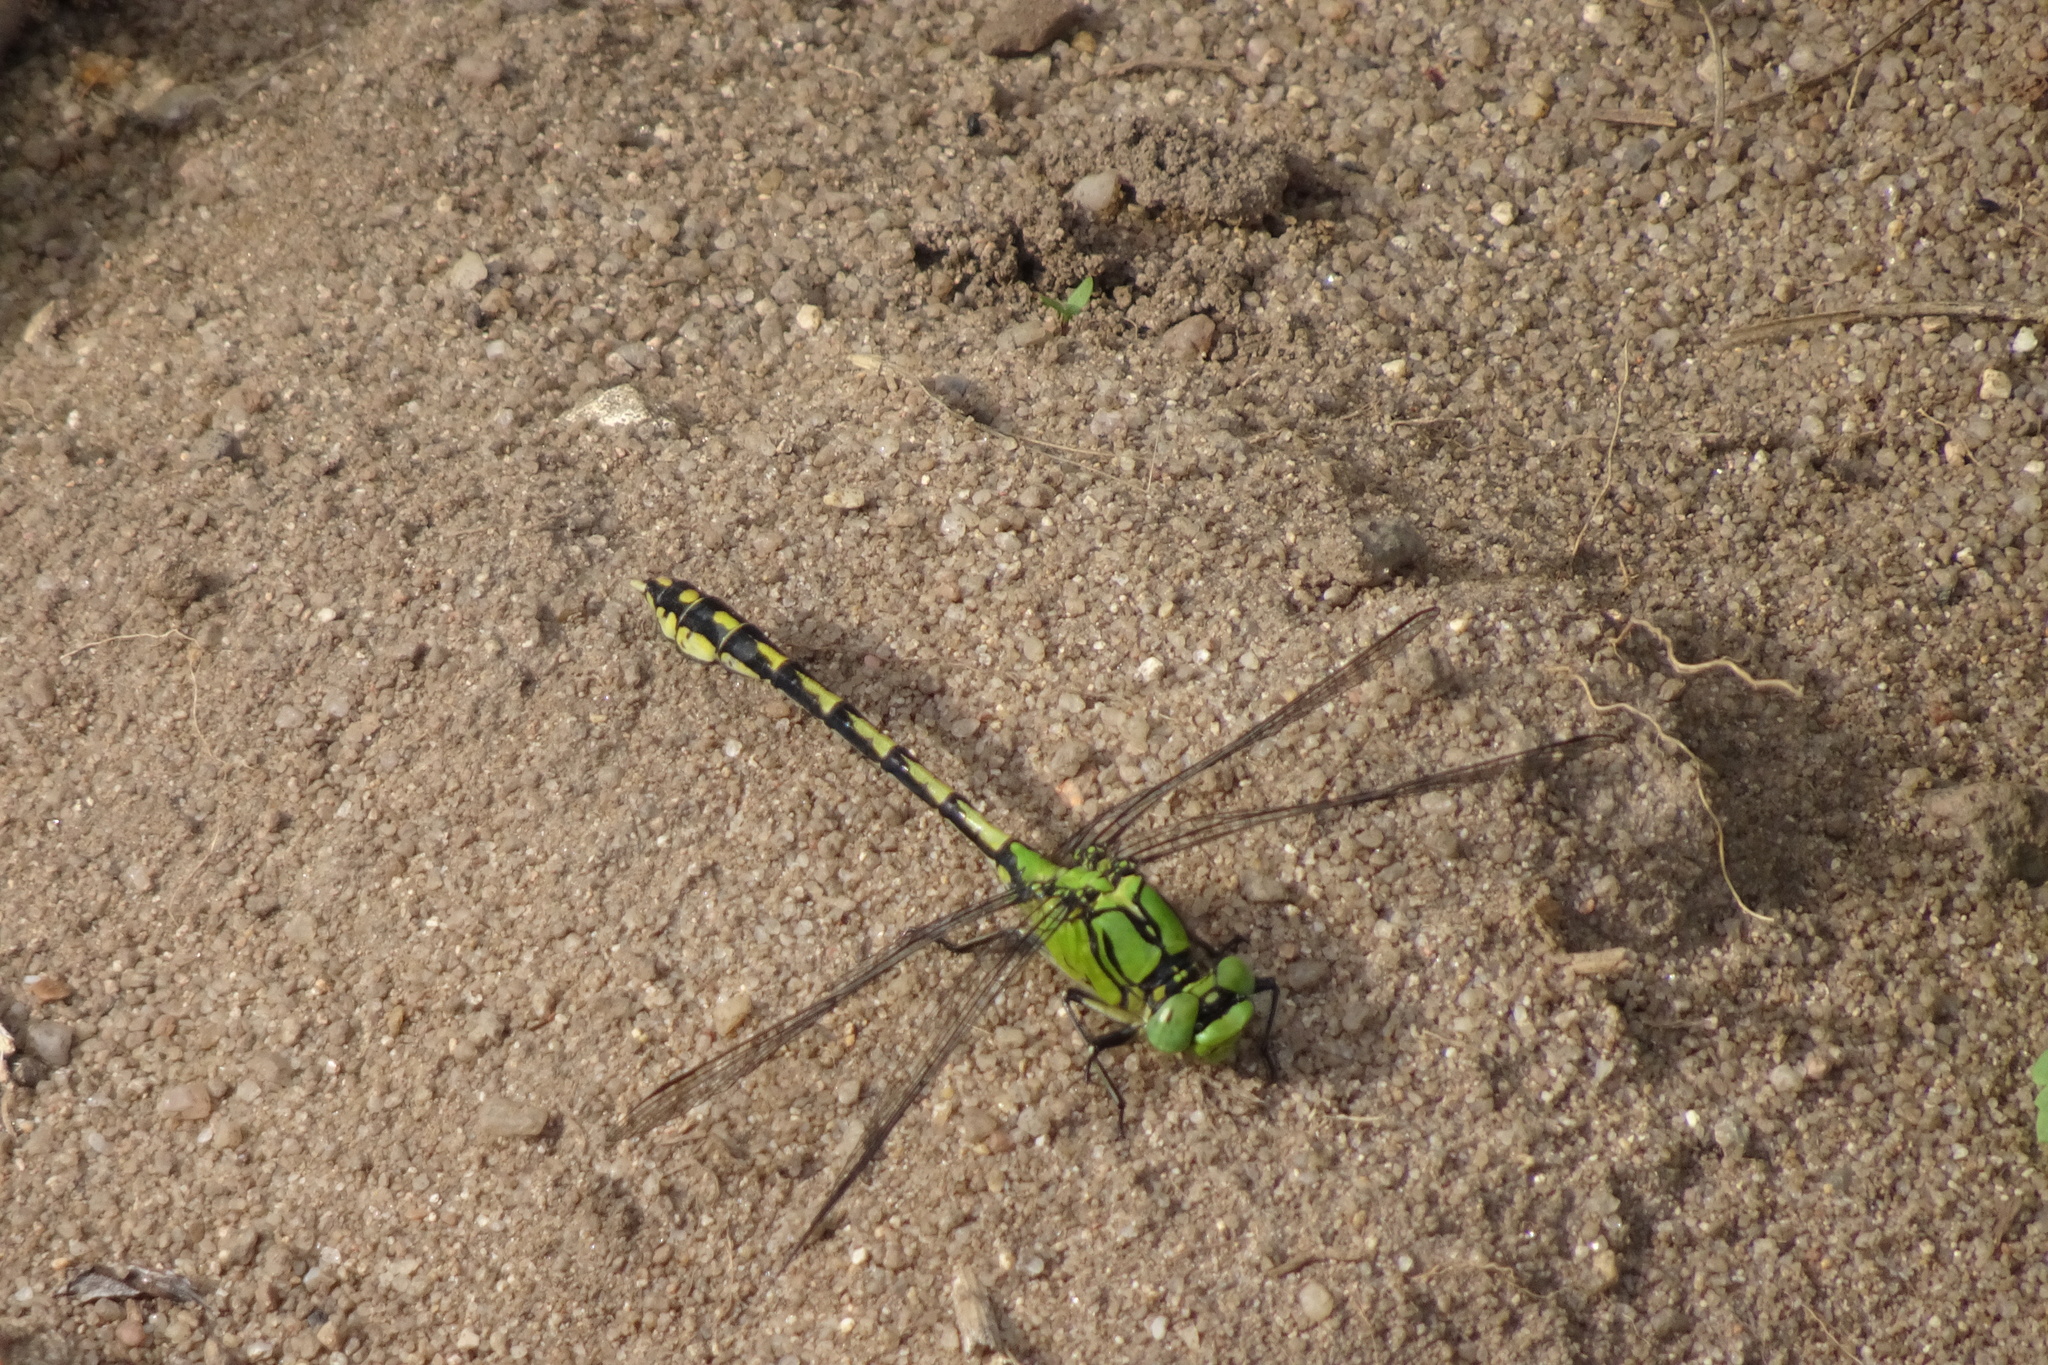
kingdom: Animalia
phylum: Arthropoda
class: Insecta
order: Odonata
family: Gomphidae
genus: Ophiogomphus
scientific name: Ophiogomphus cecilia
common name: Green snaketail
